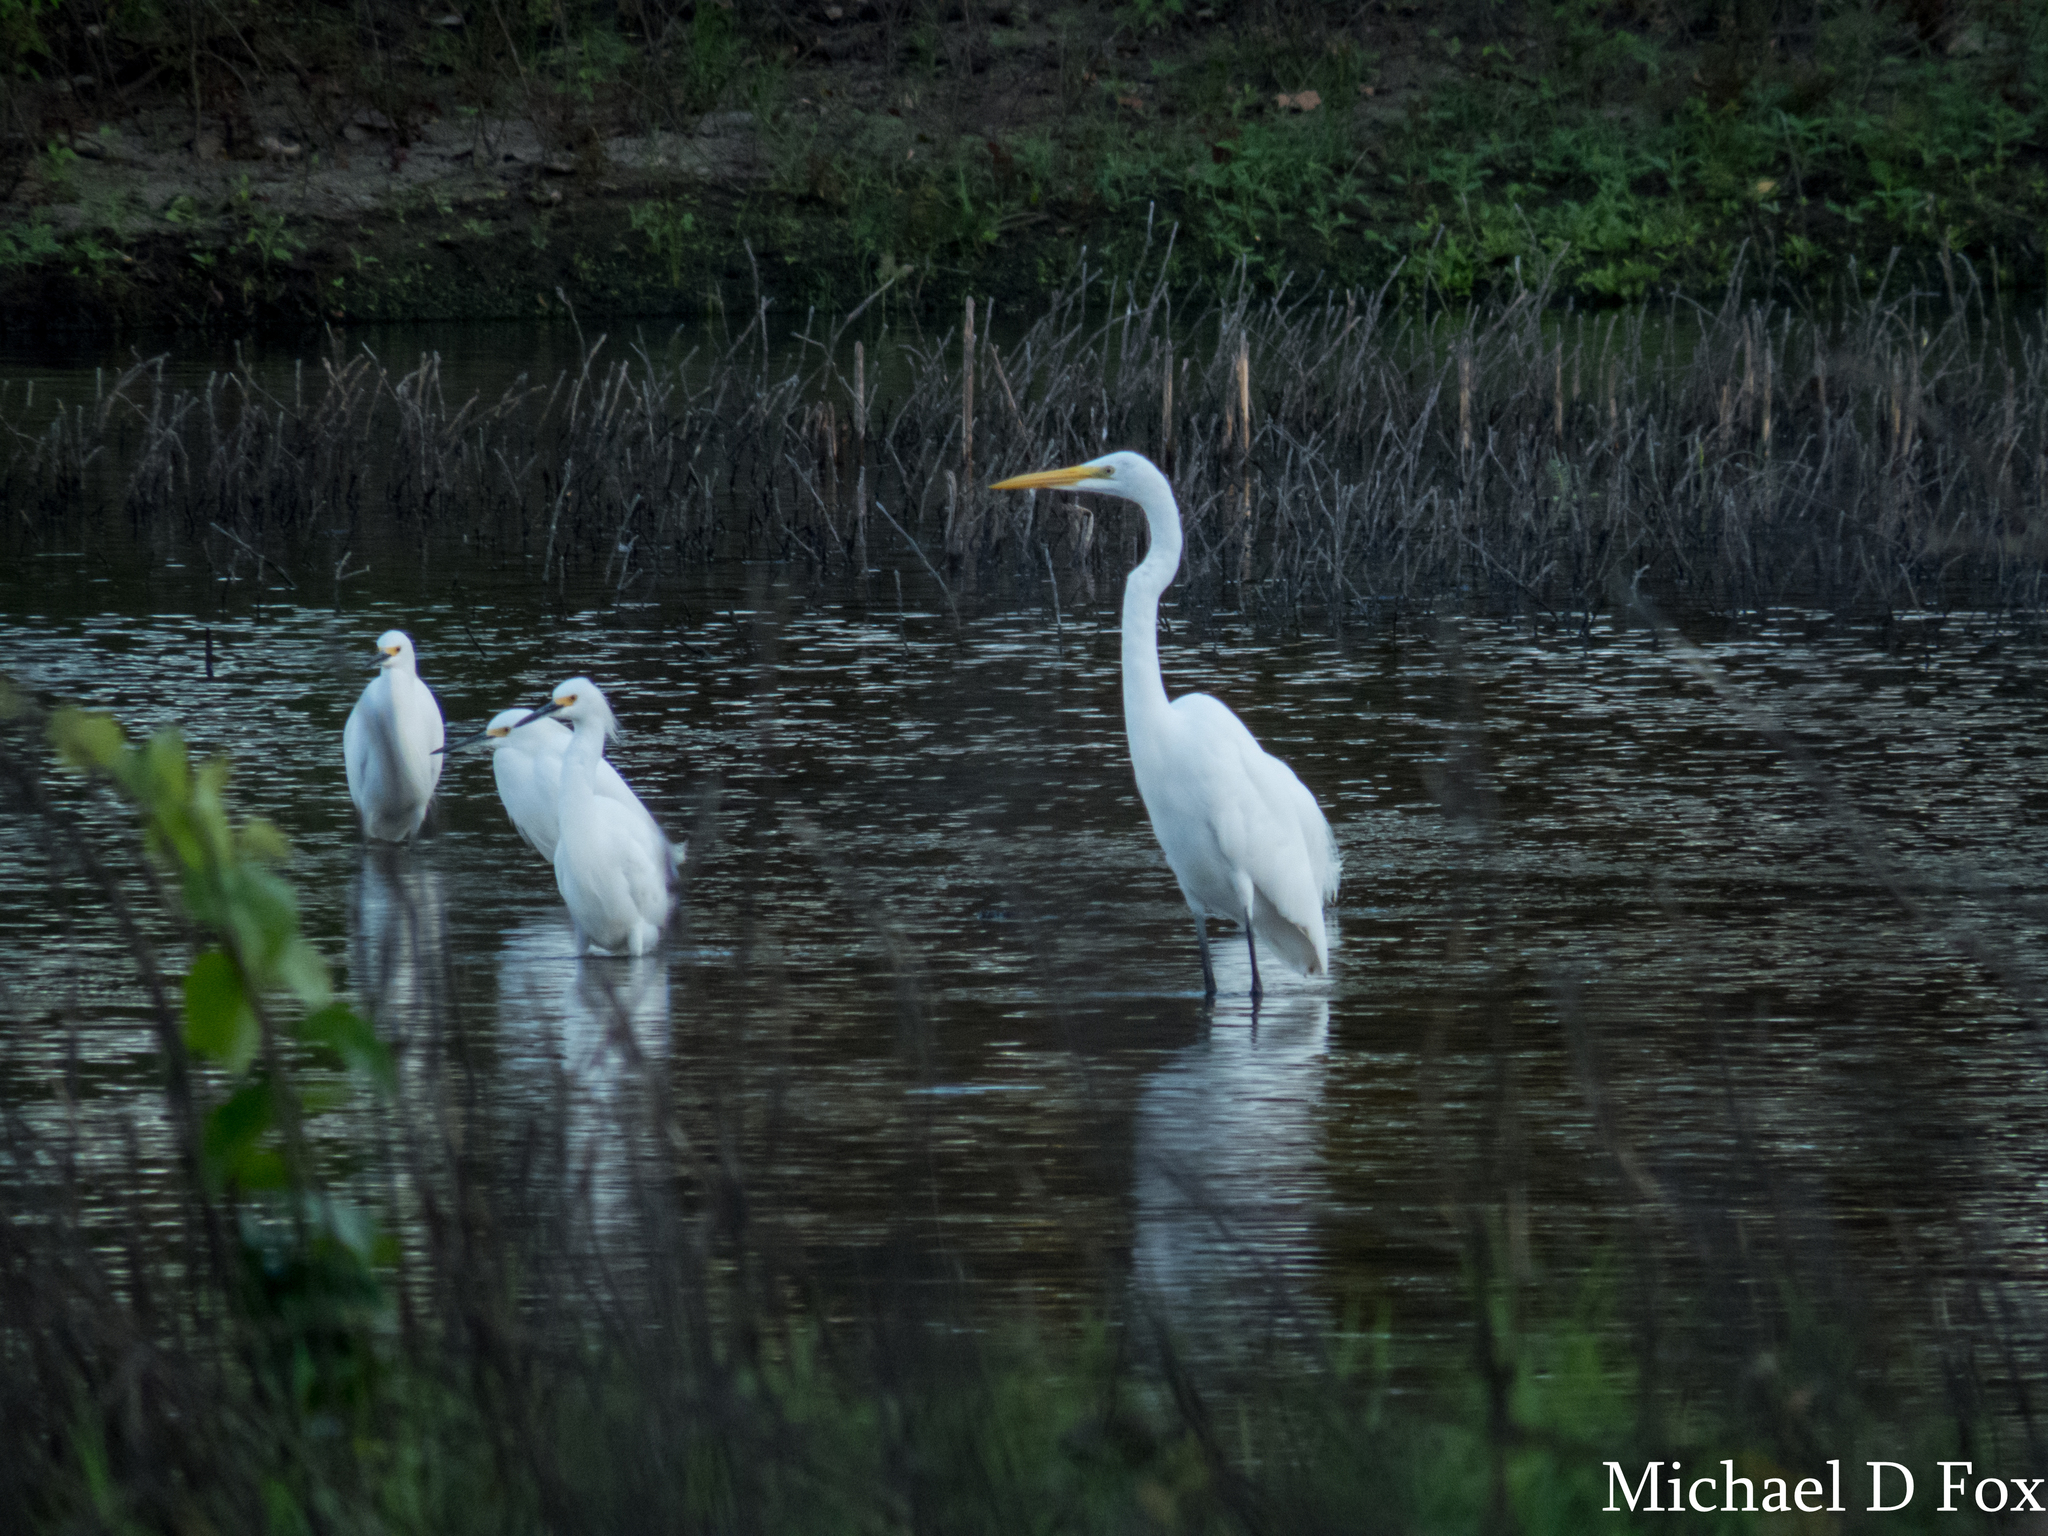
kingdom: Animalia
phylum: Chordata
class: Aves
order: Pelecaniformes
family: Ardeidae
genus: Ardea
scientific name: Ardea alba
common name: Great egret
